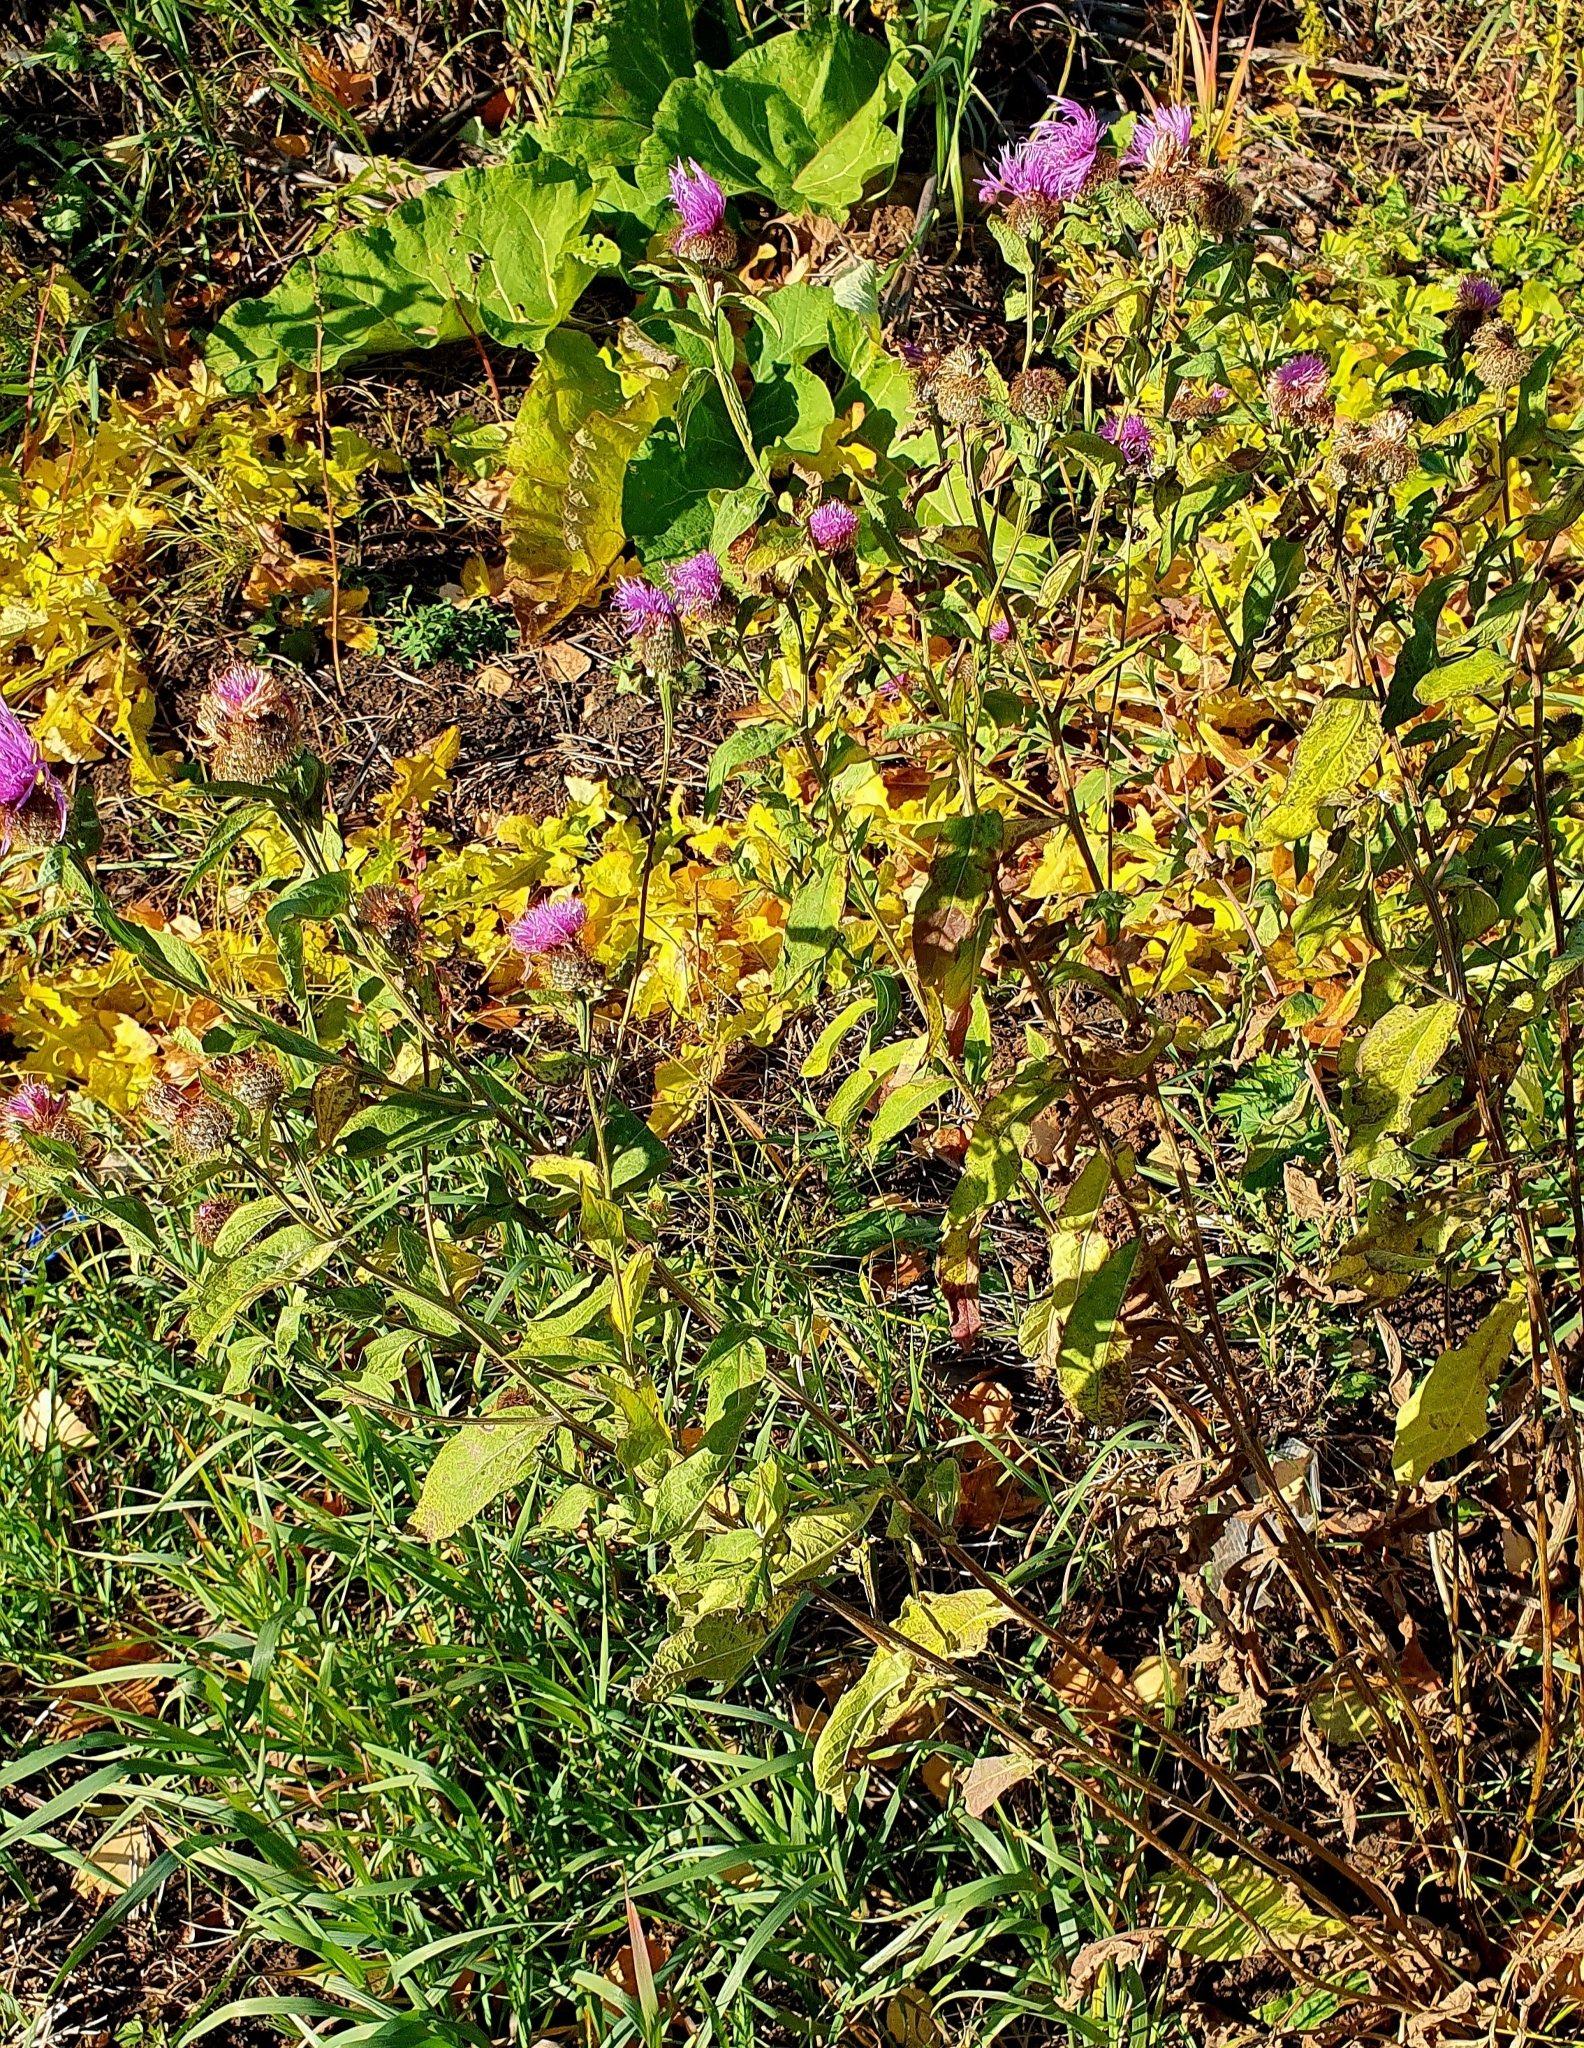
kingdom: Plantae
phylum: Tracheophyta
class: Magnoliopsida
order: Asterales
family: Asteraceae
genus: Centaurea
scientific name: Centaurea phrygia
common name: Wig knapweed
